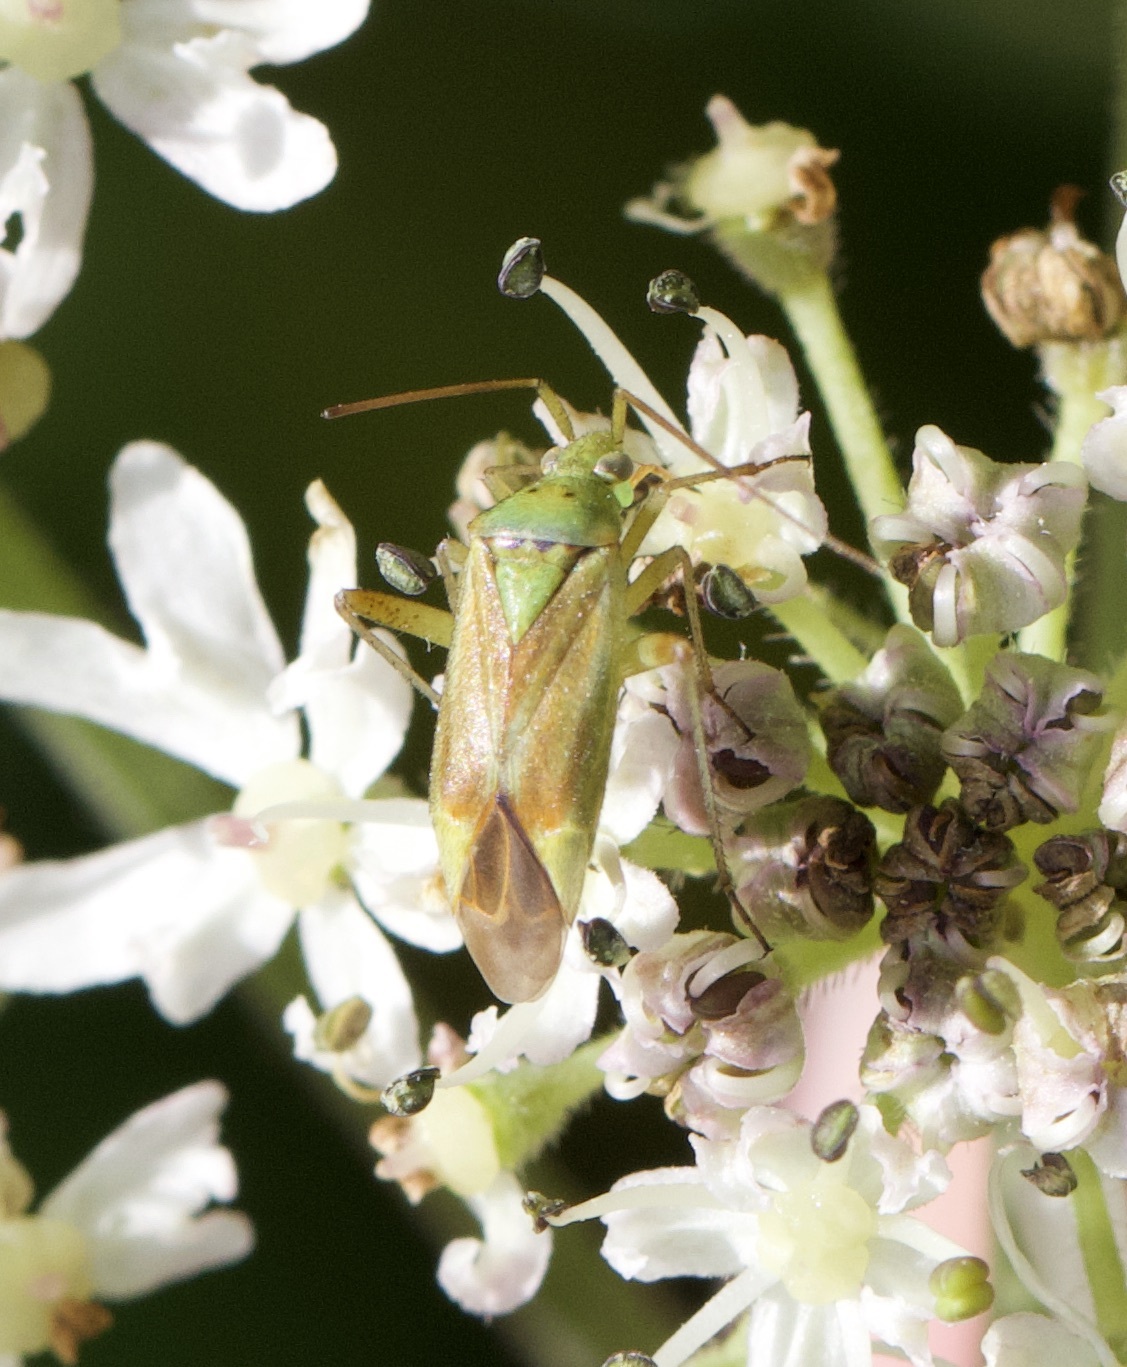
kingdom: Animalia
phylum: Arthropoda
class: Insecta
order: Hemiptera
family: Miridae
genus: Closterotomus
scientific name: Closterotomus norvegicus
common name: Plant bug
